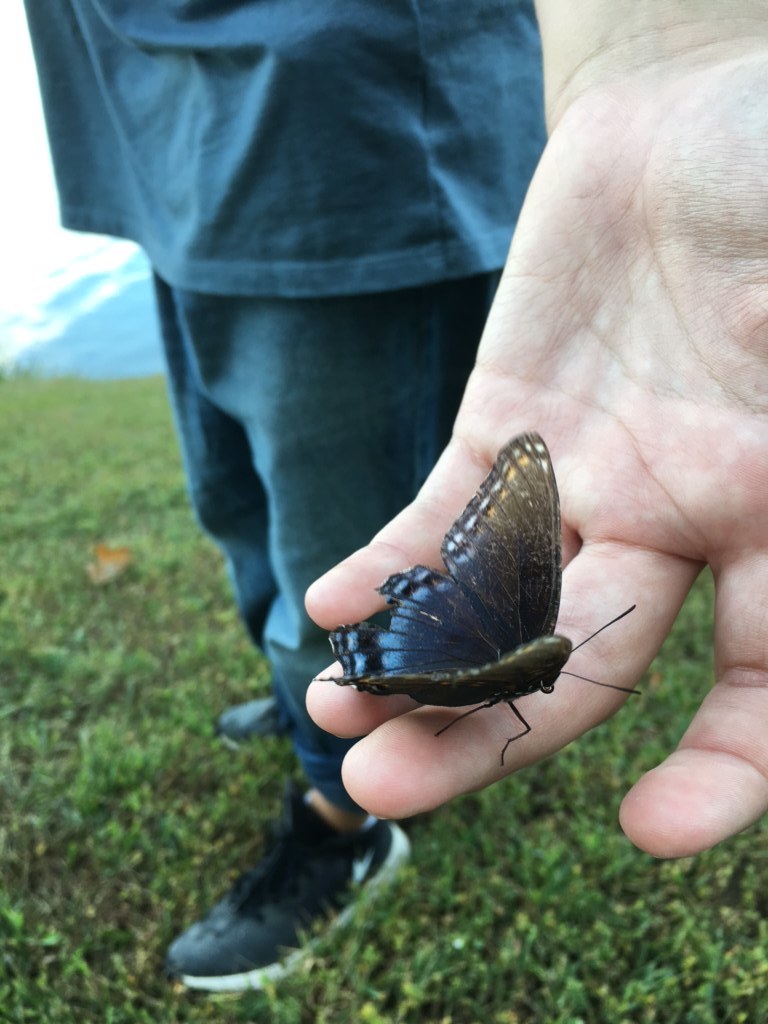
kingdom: Animalia
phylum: Arthropoda
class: Insecta
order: Lepidoptera
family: Nymphalidae
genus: Limenitis
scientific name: Limenitis arthemis
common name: Red-spotted admiral
